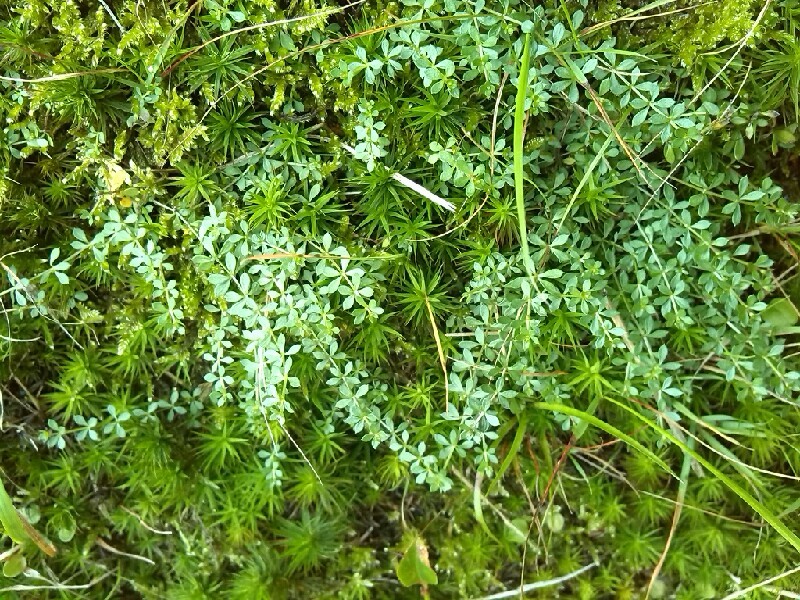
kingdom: Plantae
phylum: Tracheophyta
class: Magnoliopsida
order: Gentianales
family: Rubiaceae
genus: Galium
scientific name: Galium saxatile
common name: Heath bedstraw
